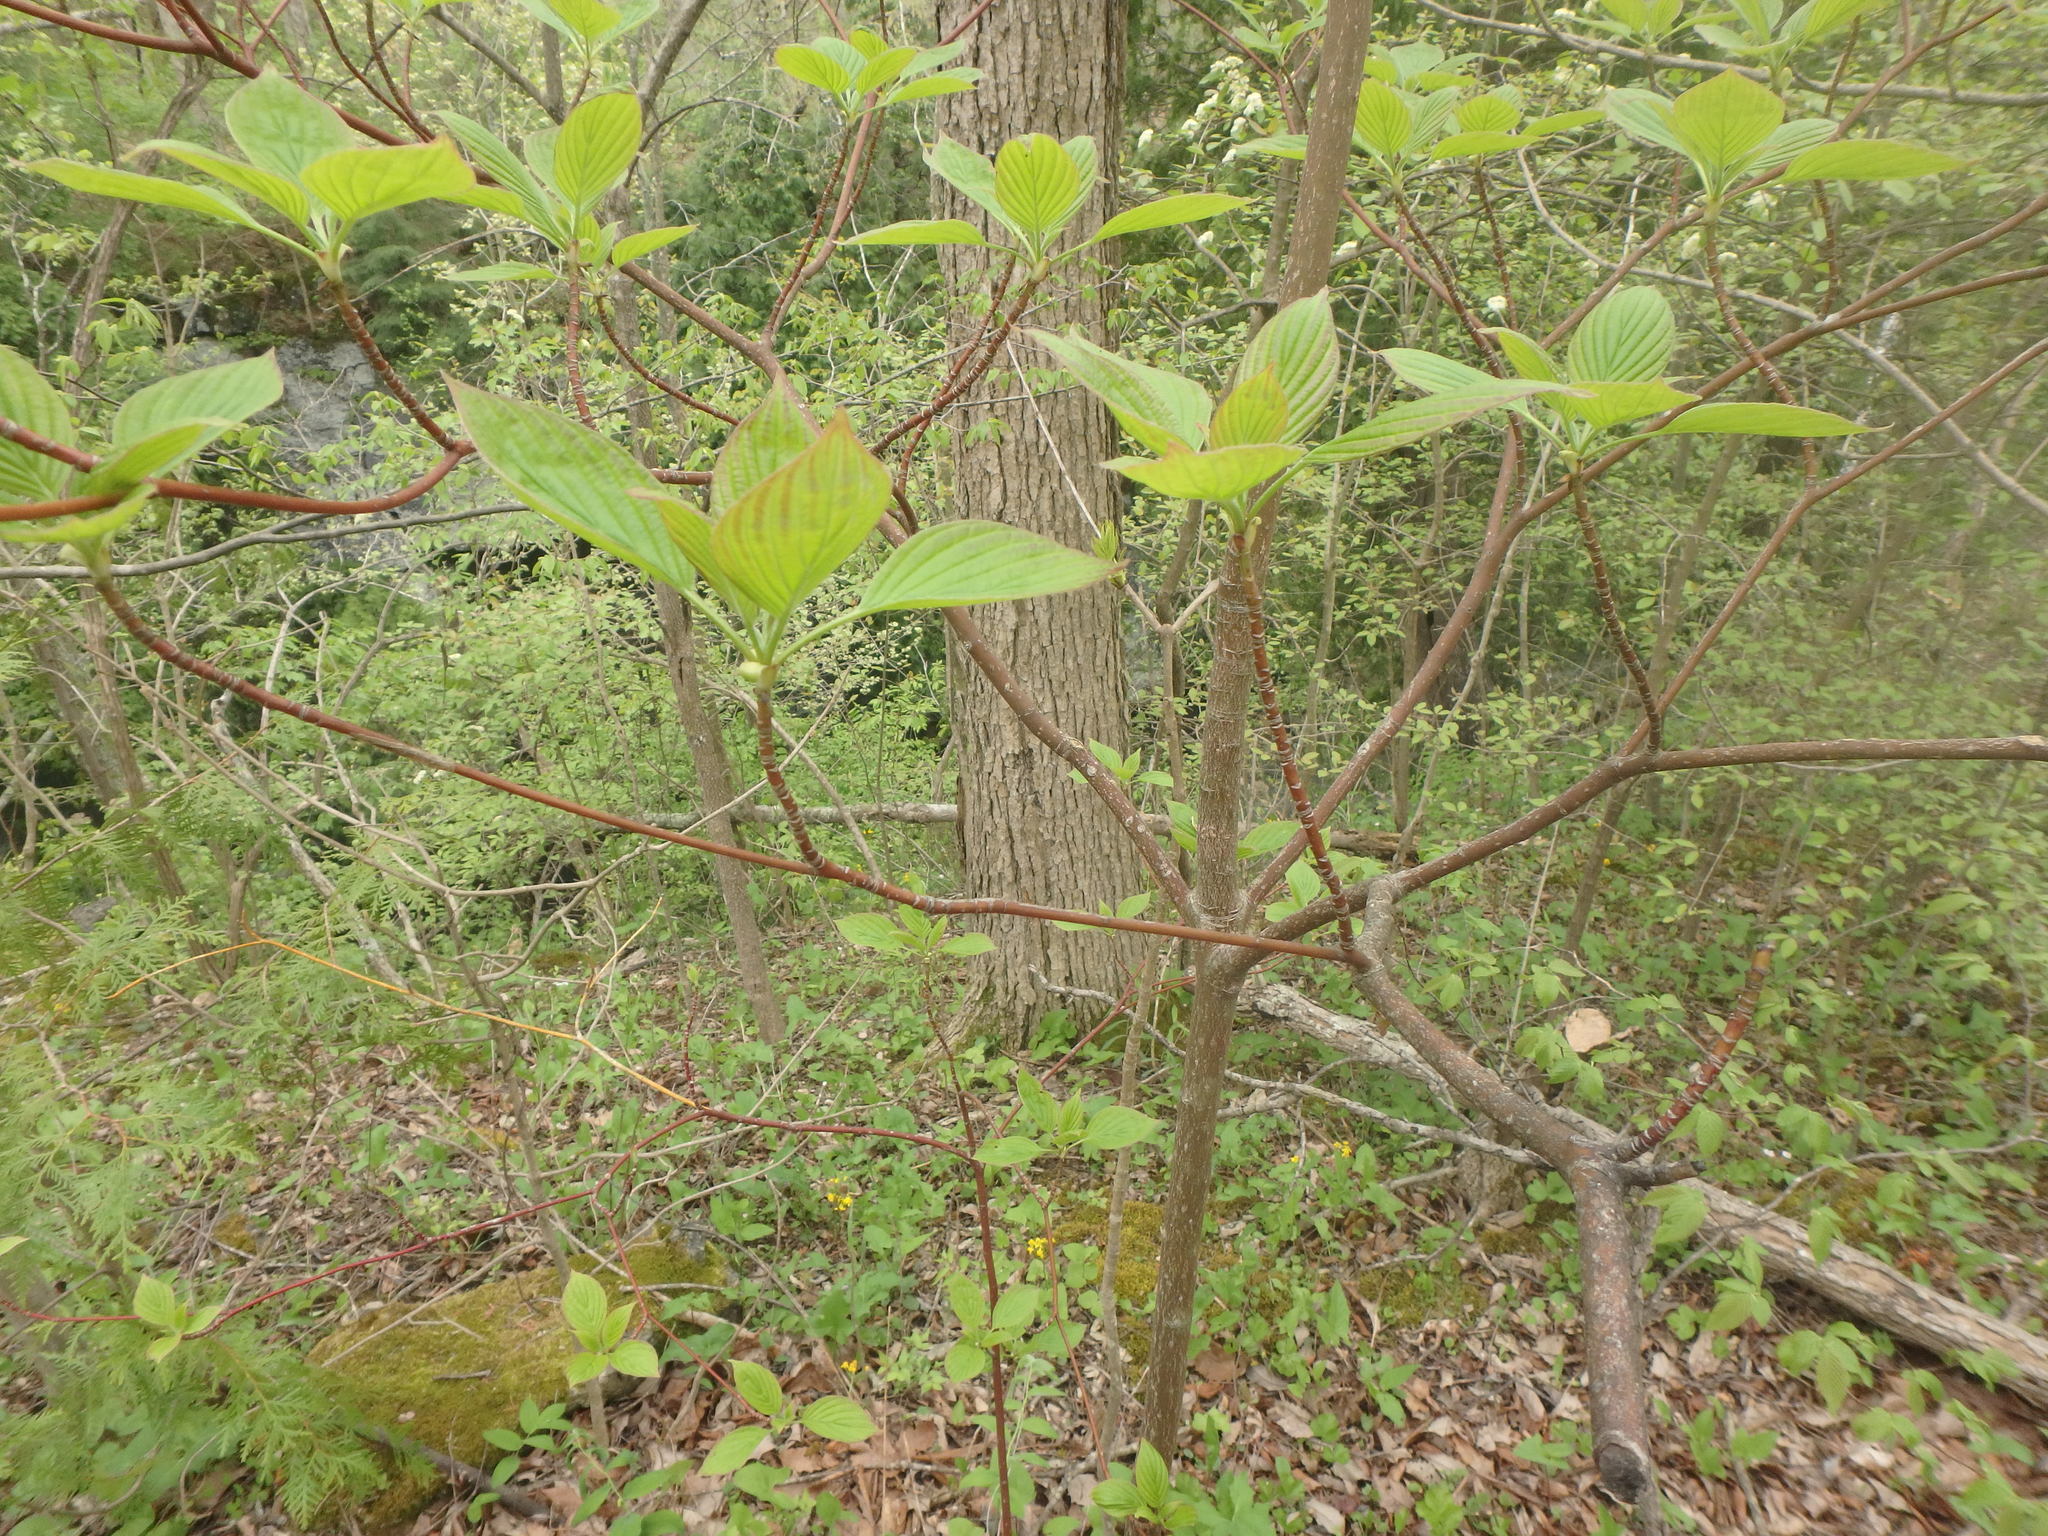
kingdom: Plantae
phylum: Tracheophyta
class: Magnoliopsida
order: Cornales
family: Cornaceae
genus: Cornus
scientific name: Cornus alternifolia
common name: Pagoda dogwood
